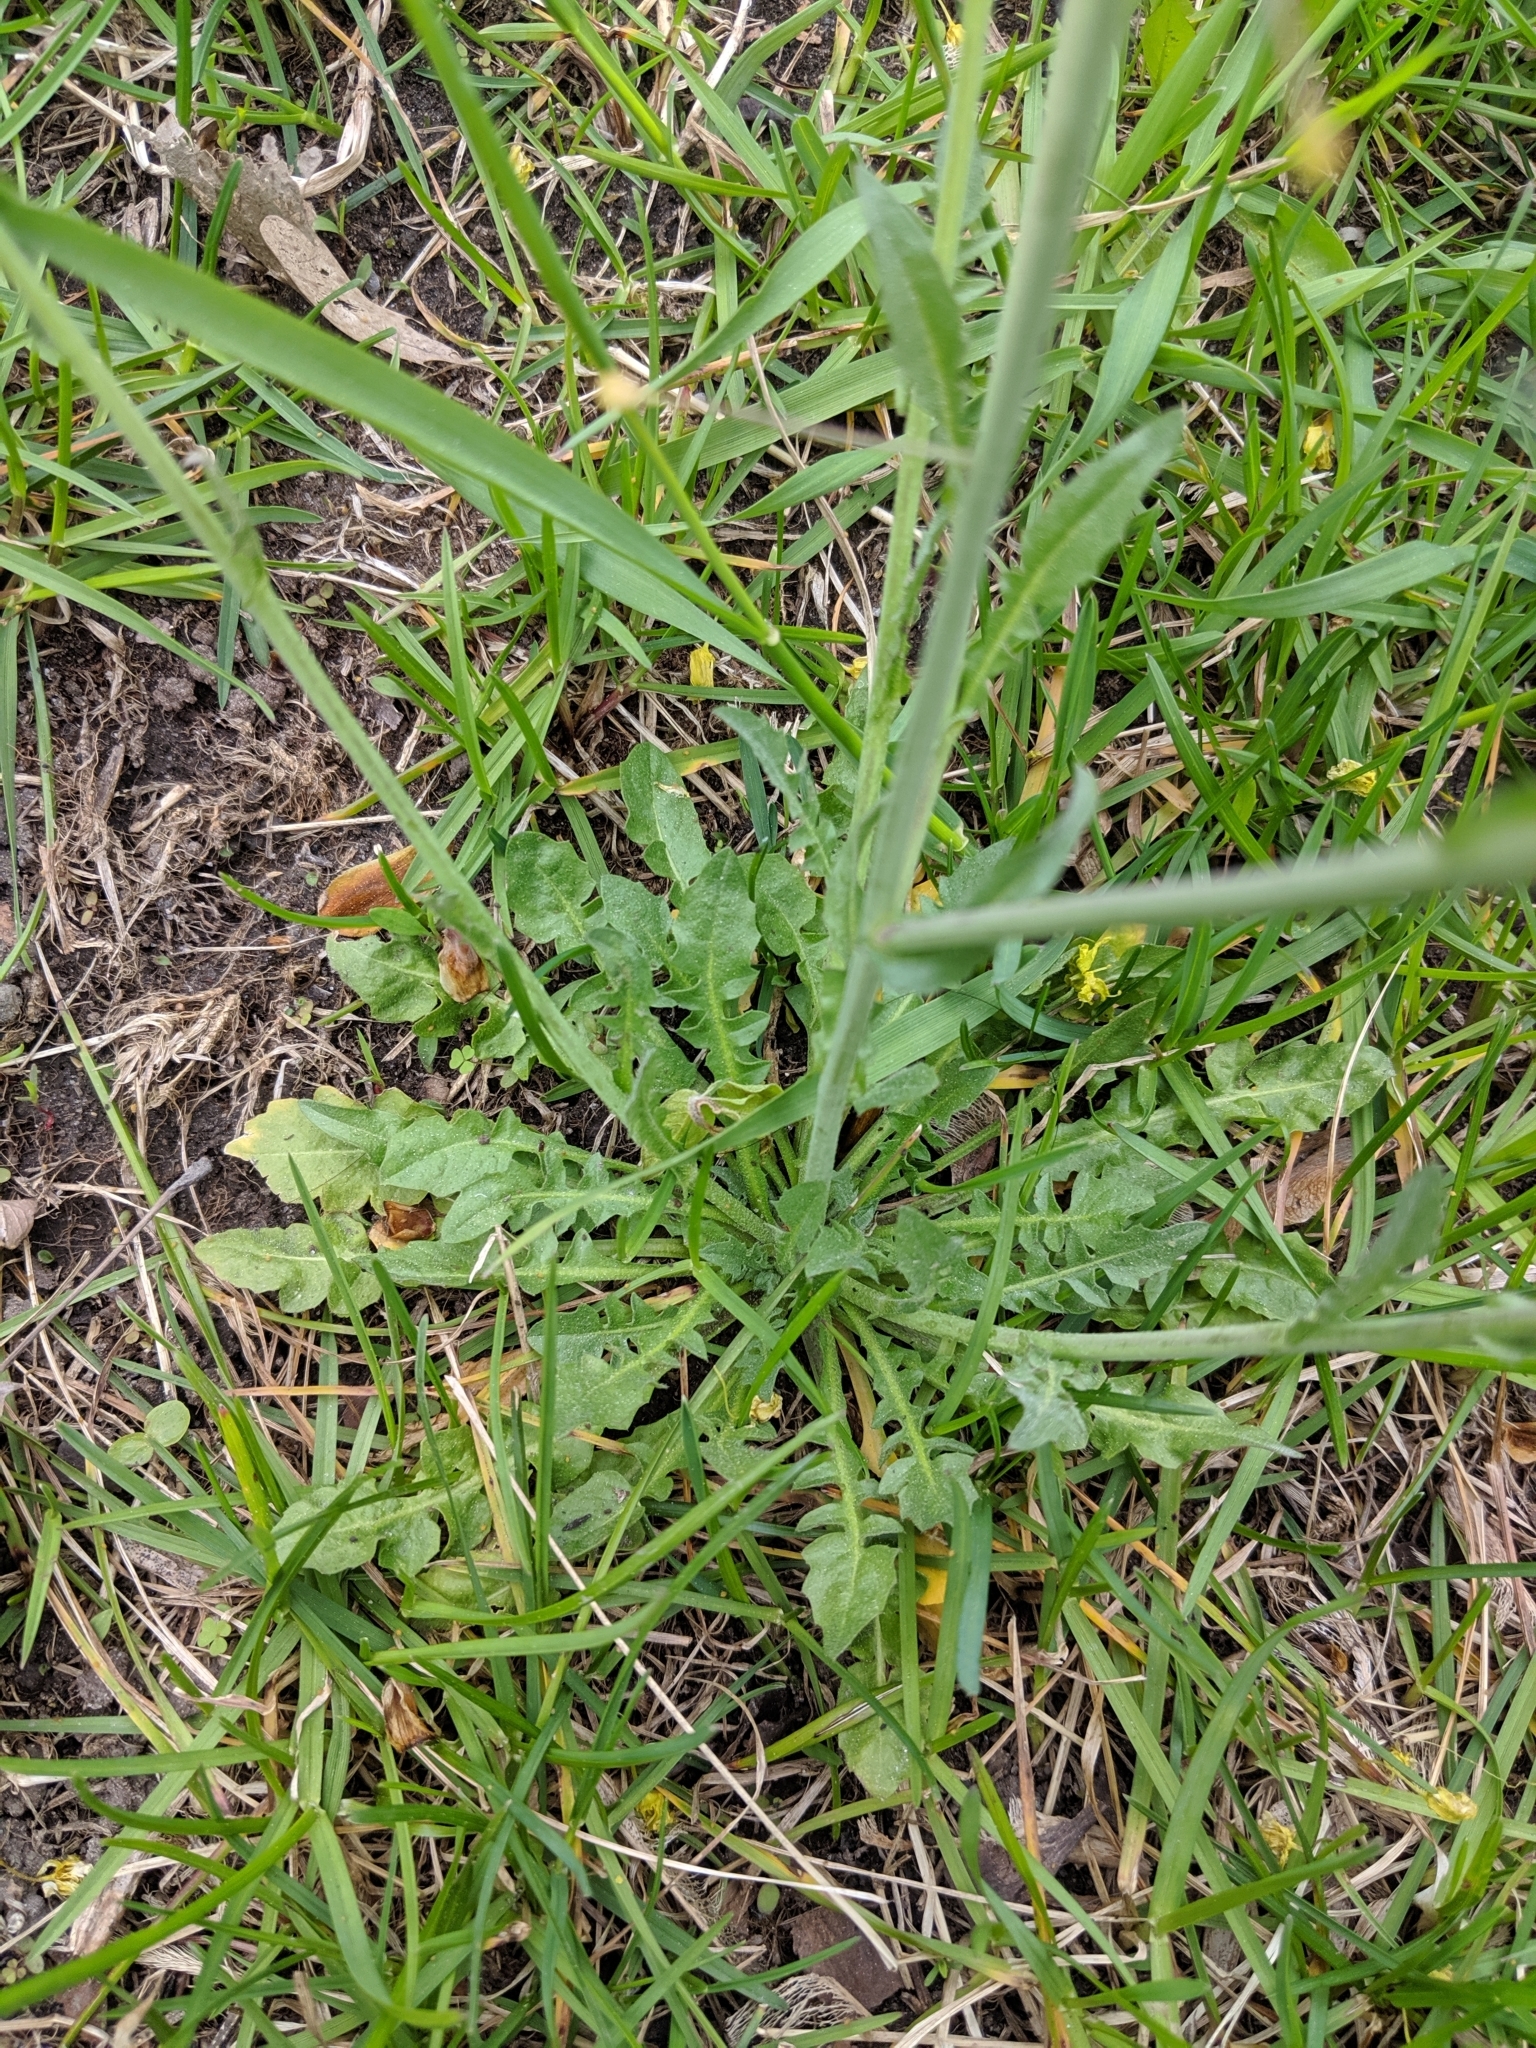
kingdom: Plantae
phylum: Tracheophyta
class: Magnoliopsida
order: Brassicales
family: Brassicaceae
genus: Capsella
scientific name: Capsella bursa-pastoris
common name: Shepherd's purse
